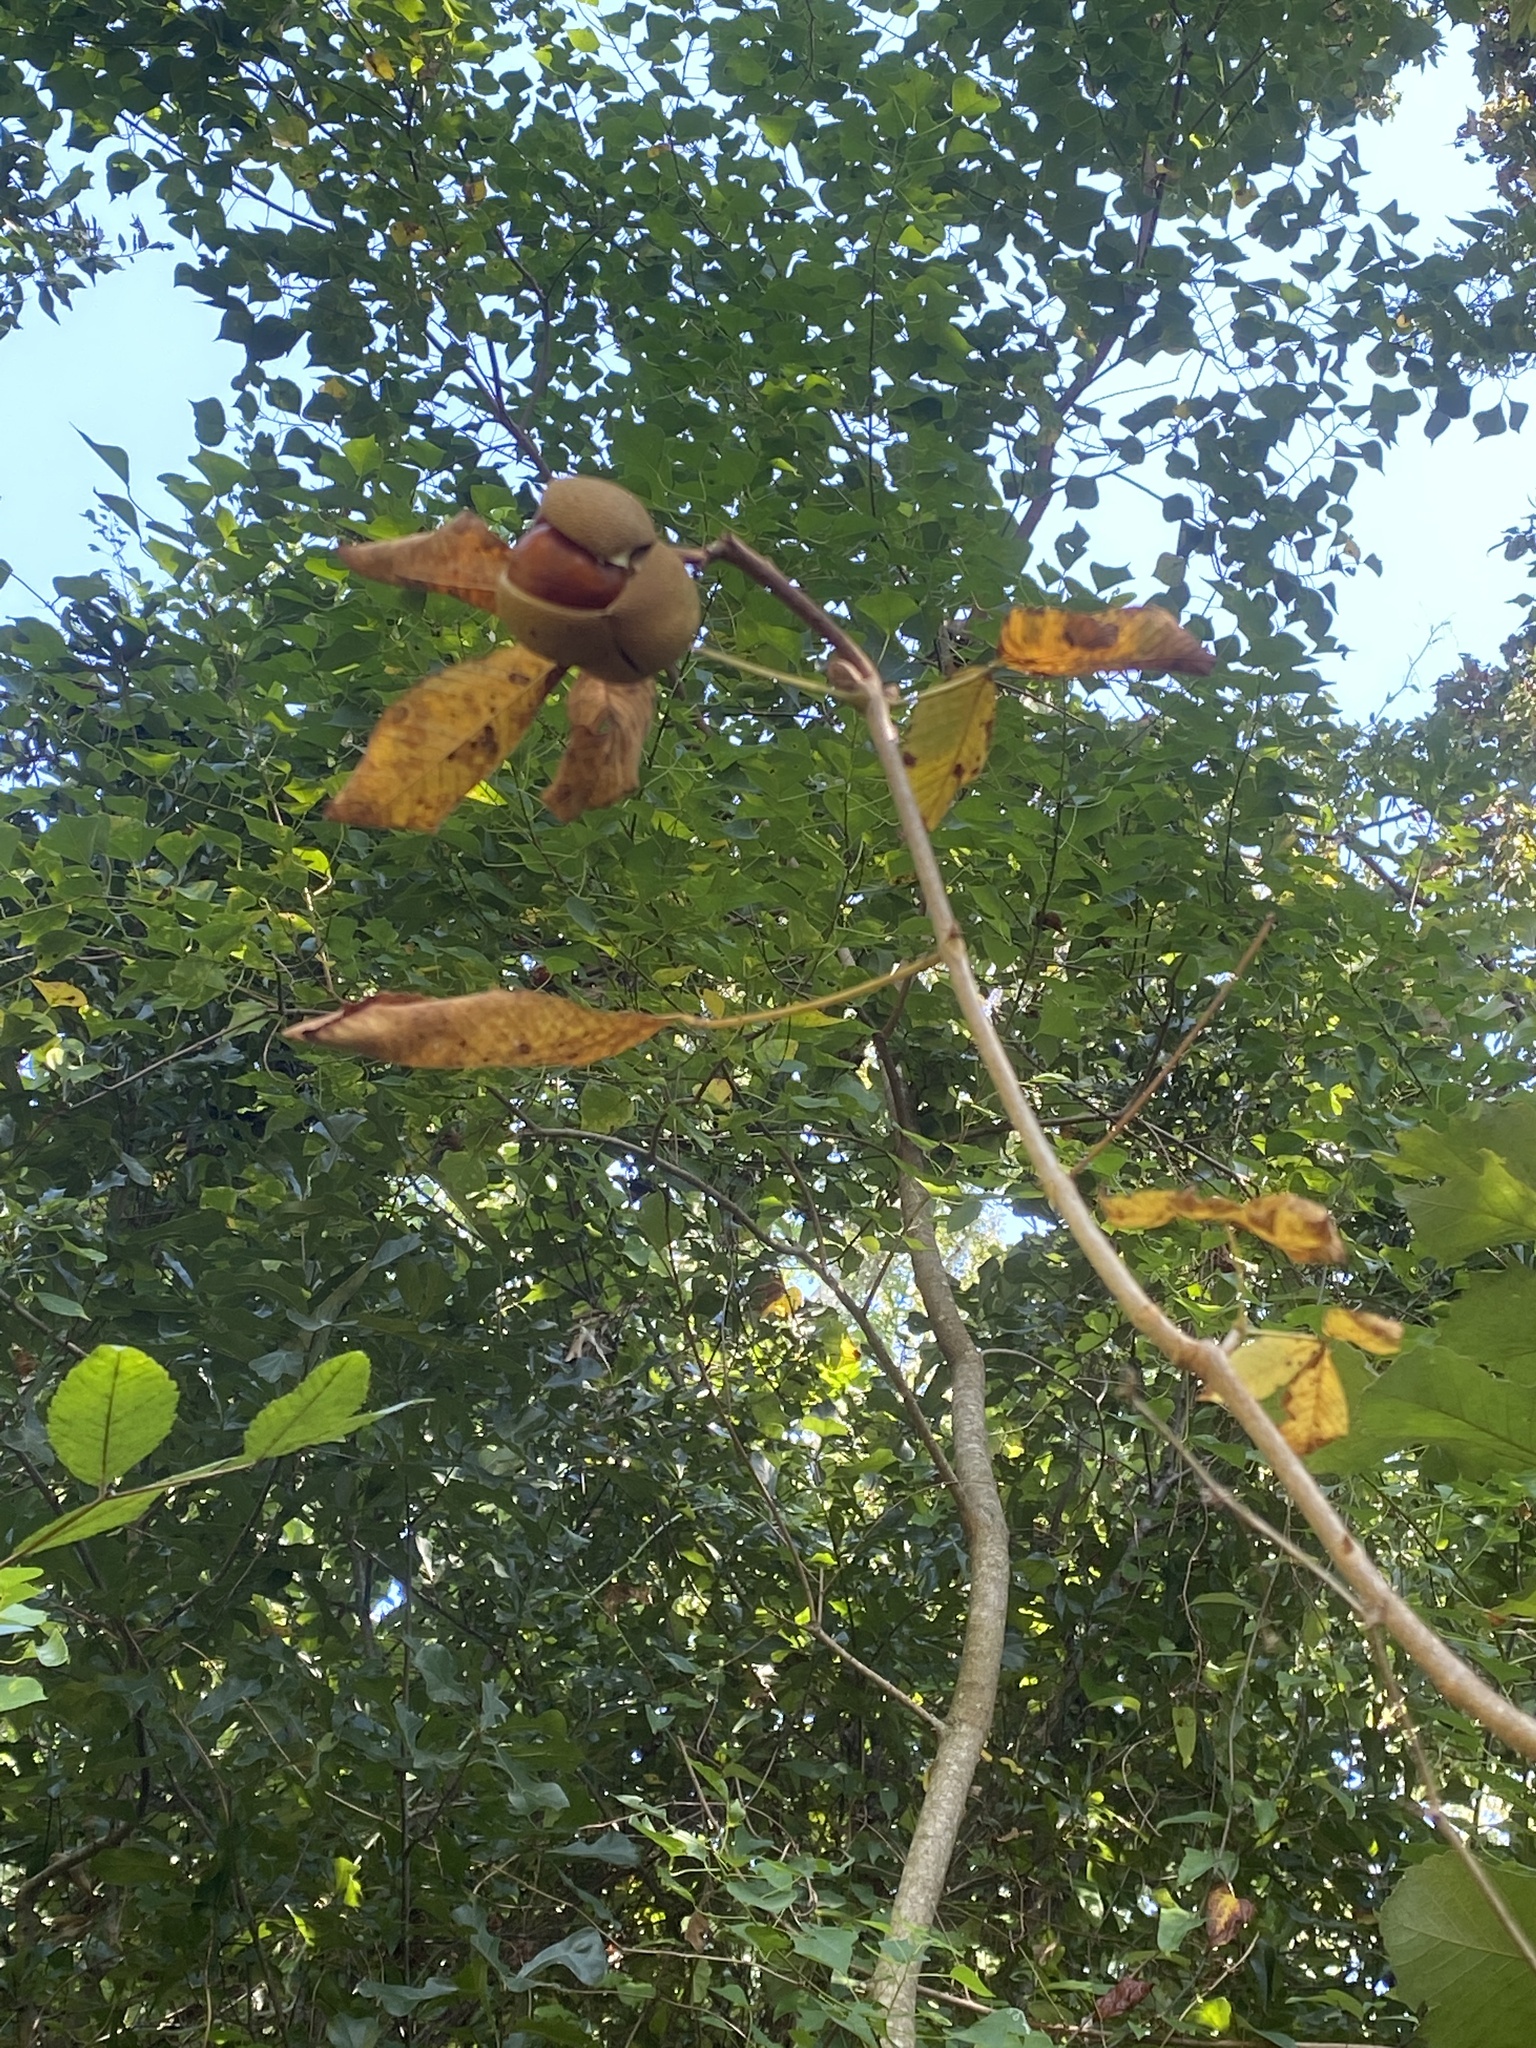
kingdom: Plantae
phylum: Tracheophyta
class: Magnoliopsida
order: Sapindales
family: Sapindaceae
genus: Aesculus
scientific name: Aesculus pavia
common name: Red buckeye
